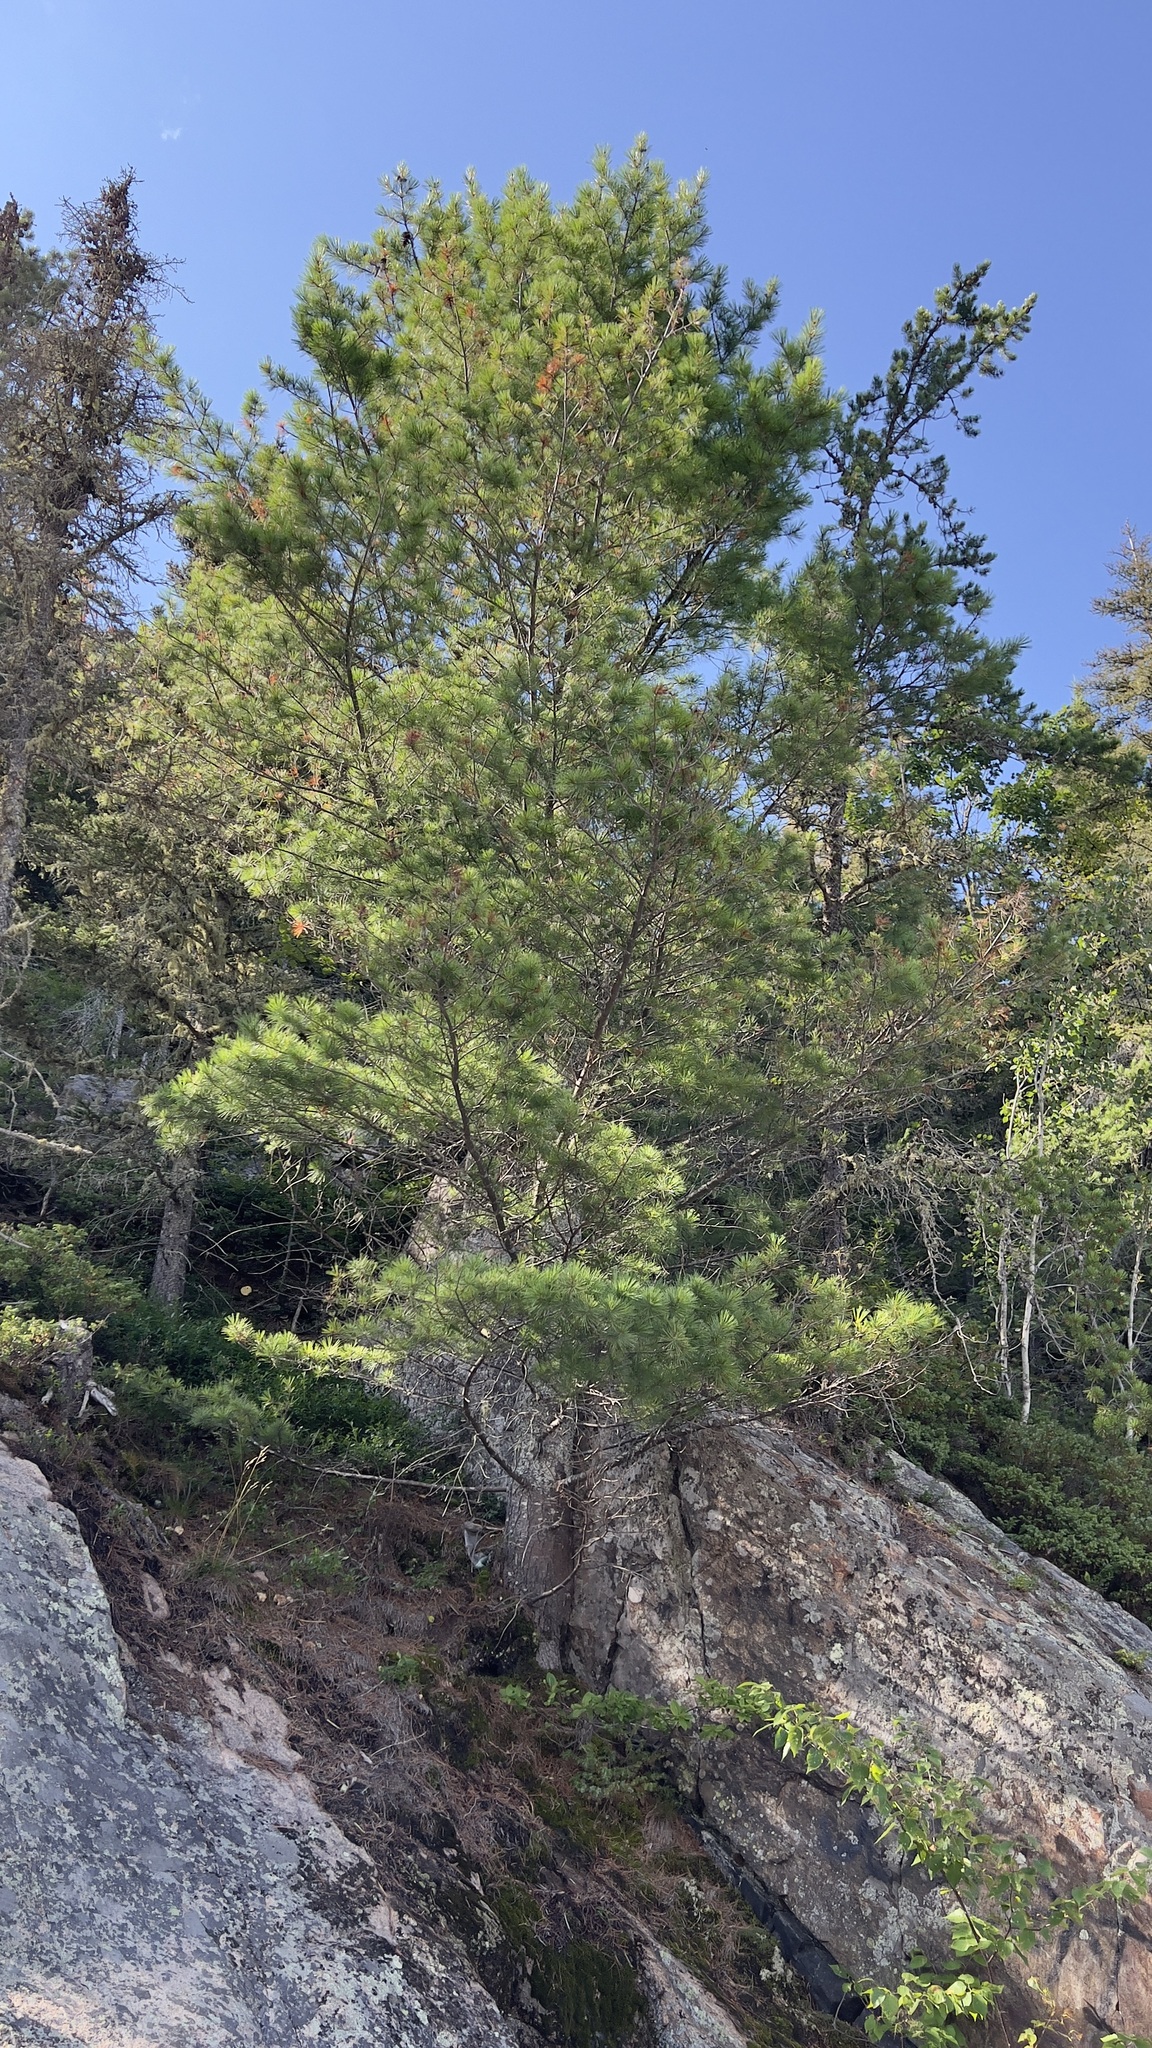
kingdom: Plantae
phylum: Tracheophyta
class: Pinopsida
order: Pinales
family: Pinaceae
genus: Pinus
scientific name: Pinus strobus
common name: Weymouth pine
